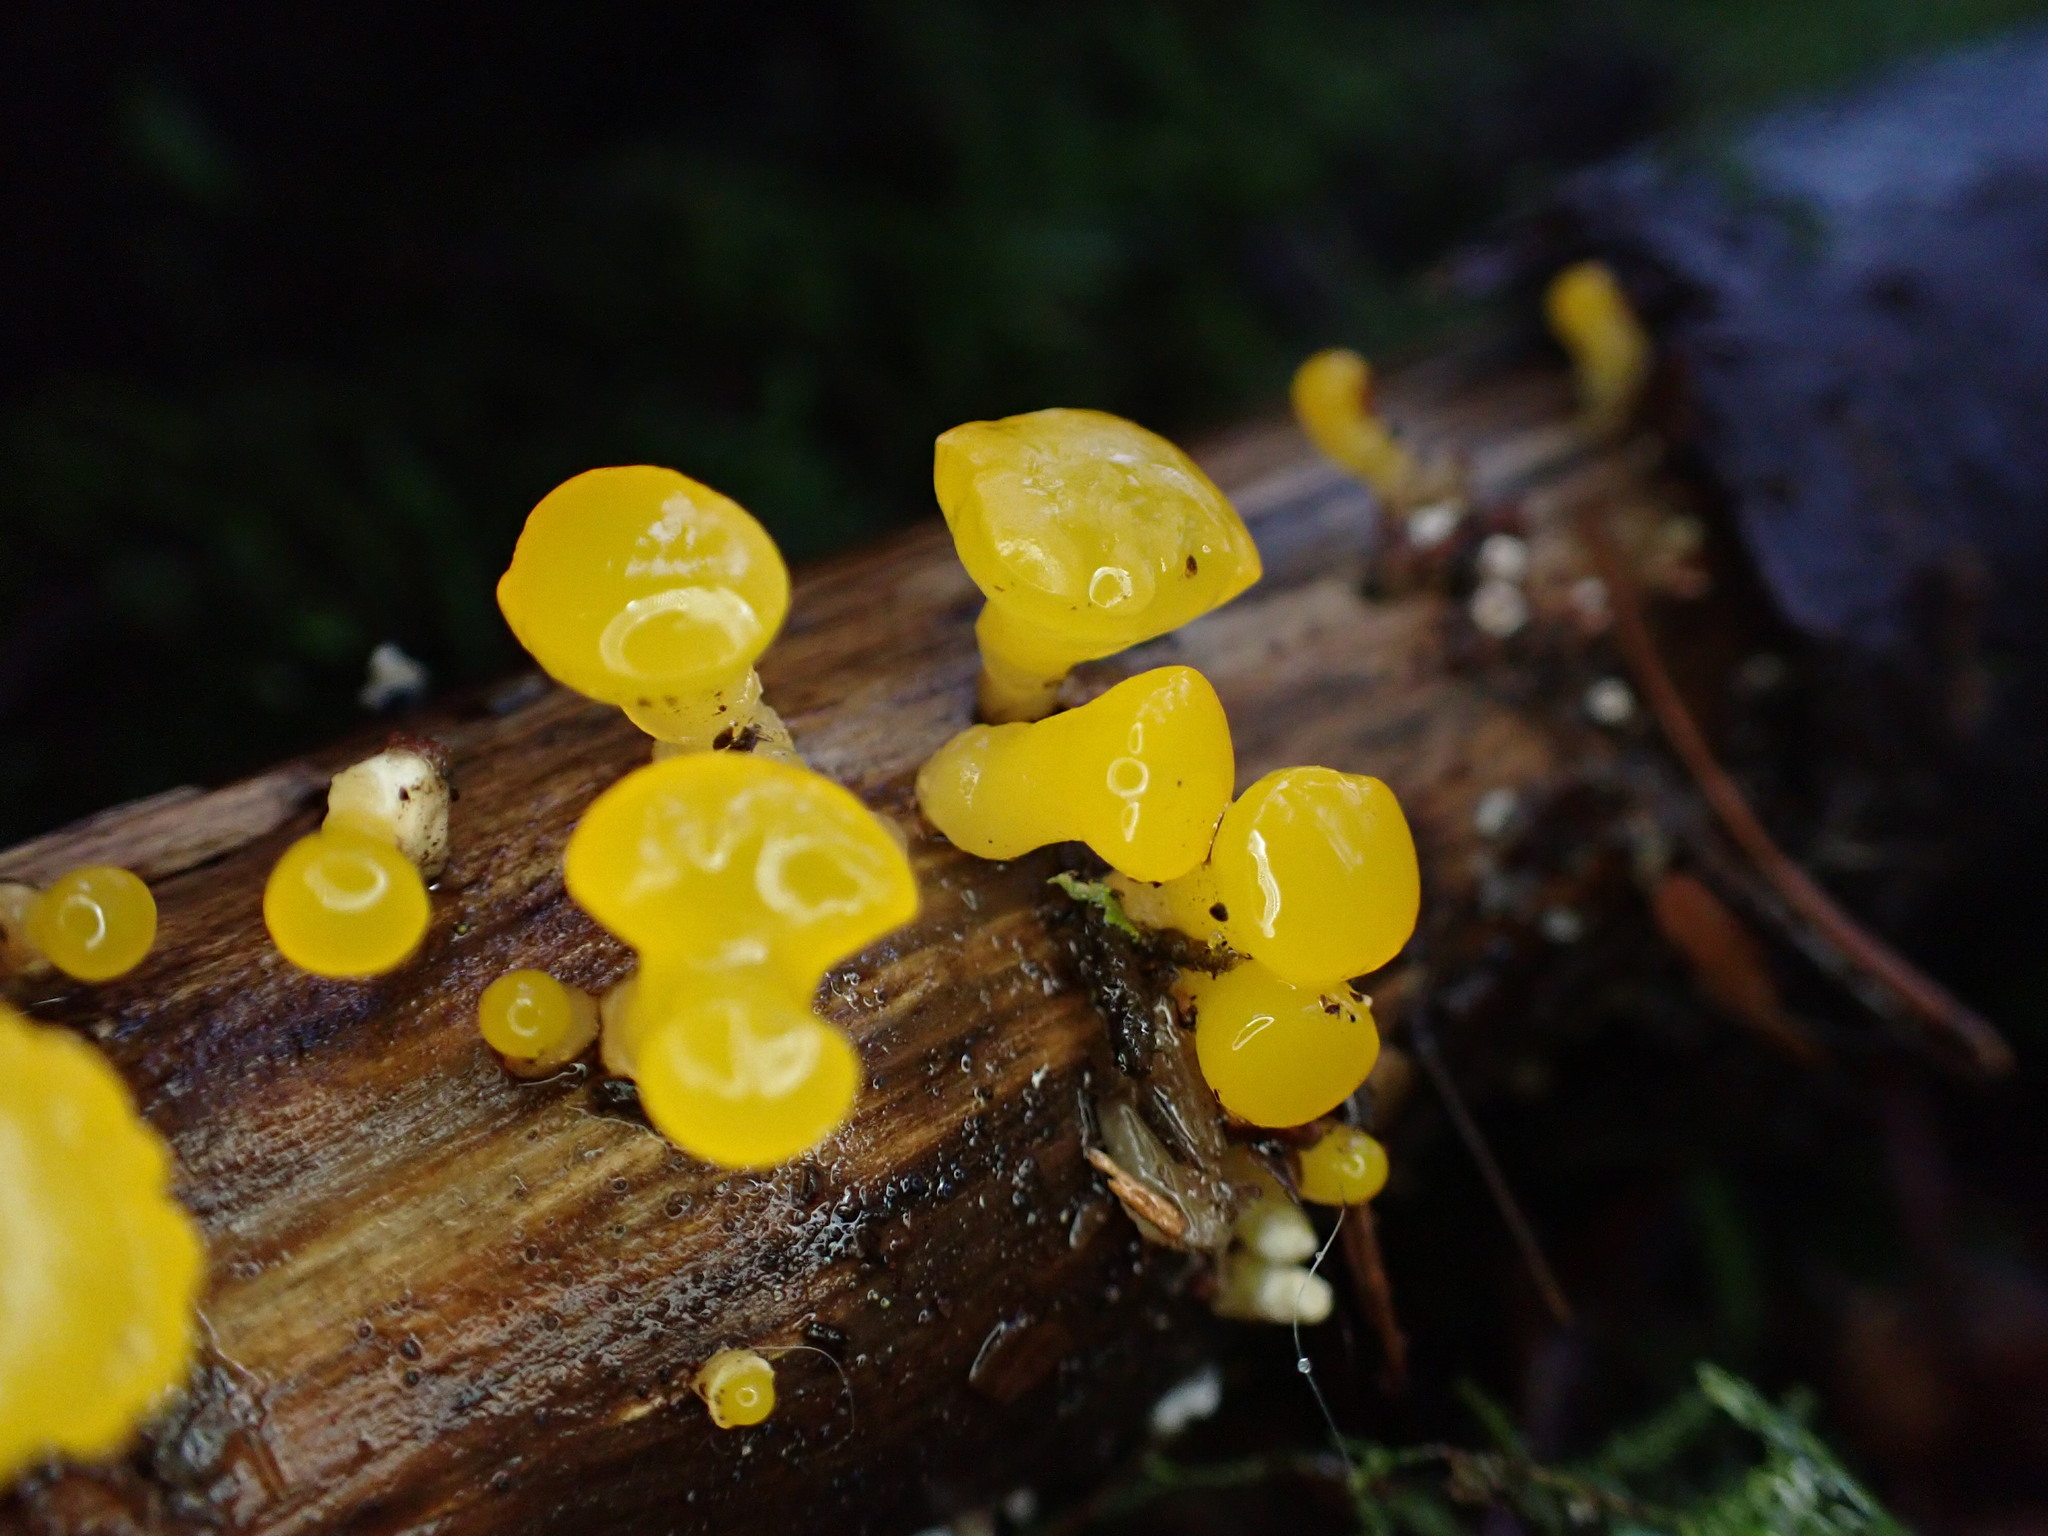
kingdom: Fungi
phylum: Basidiomycota
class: Dacrymycetes
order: Dacrymycetales
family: Dacrymycetaceae
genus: Guepiniopsis
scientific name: Guepiniopsis alpina
